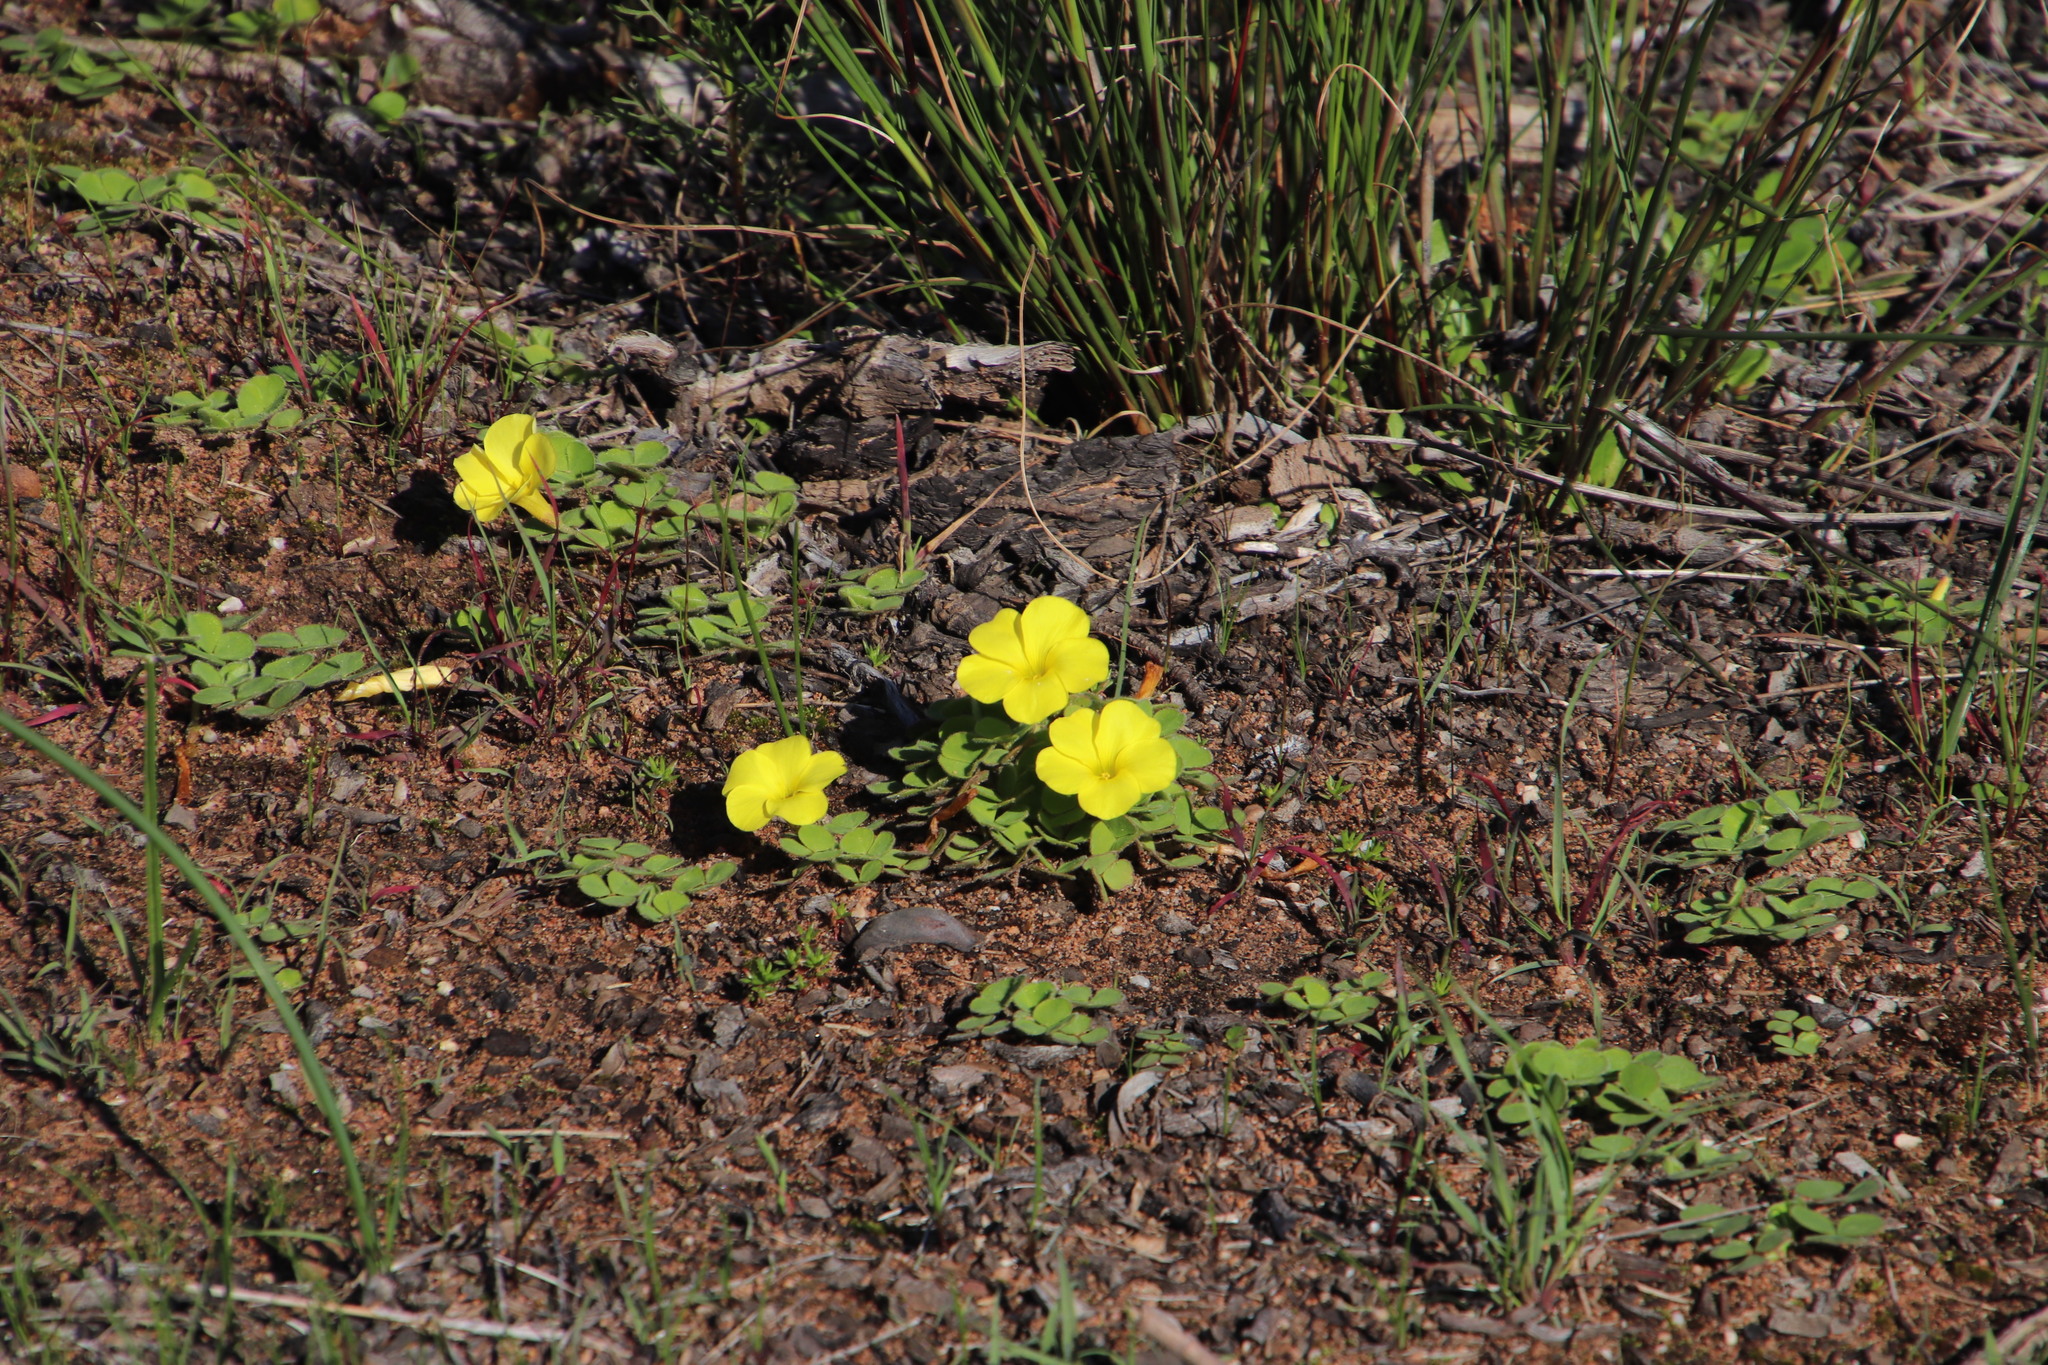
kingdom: Plantae
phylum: Tracheophyta
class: Magnoliopsida
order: Oxalidales
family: Oxalidaceae
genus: Oxalis
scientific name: Oxalis luteola
